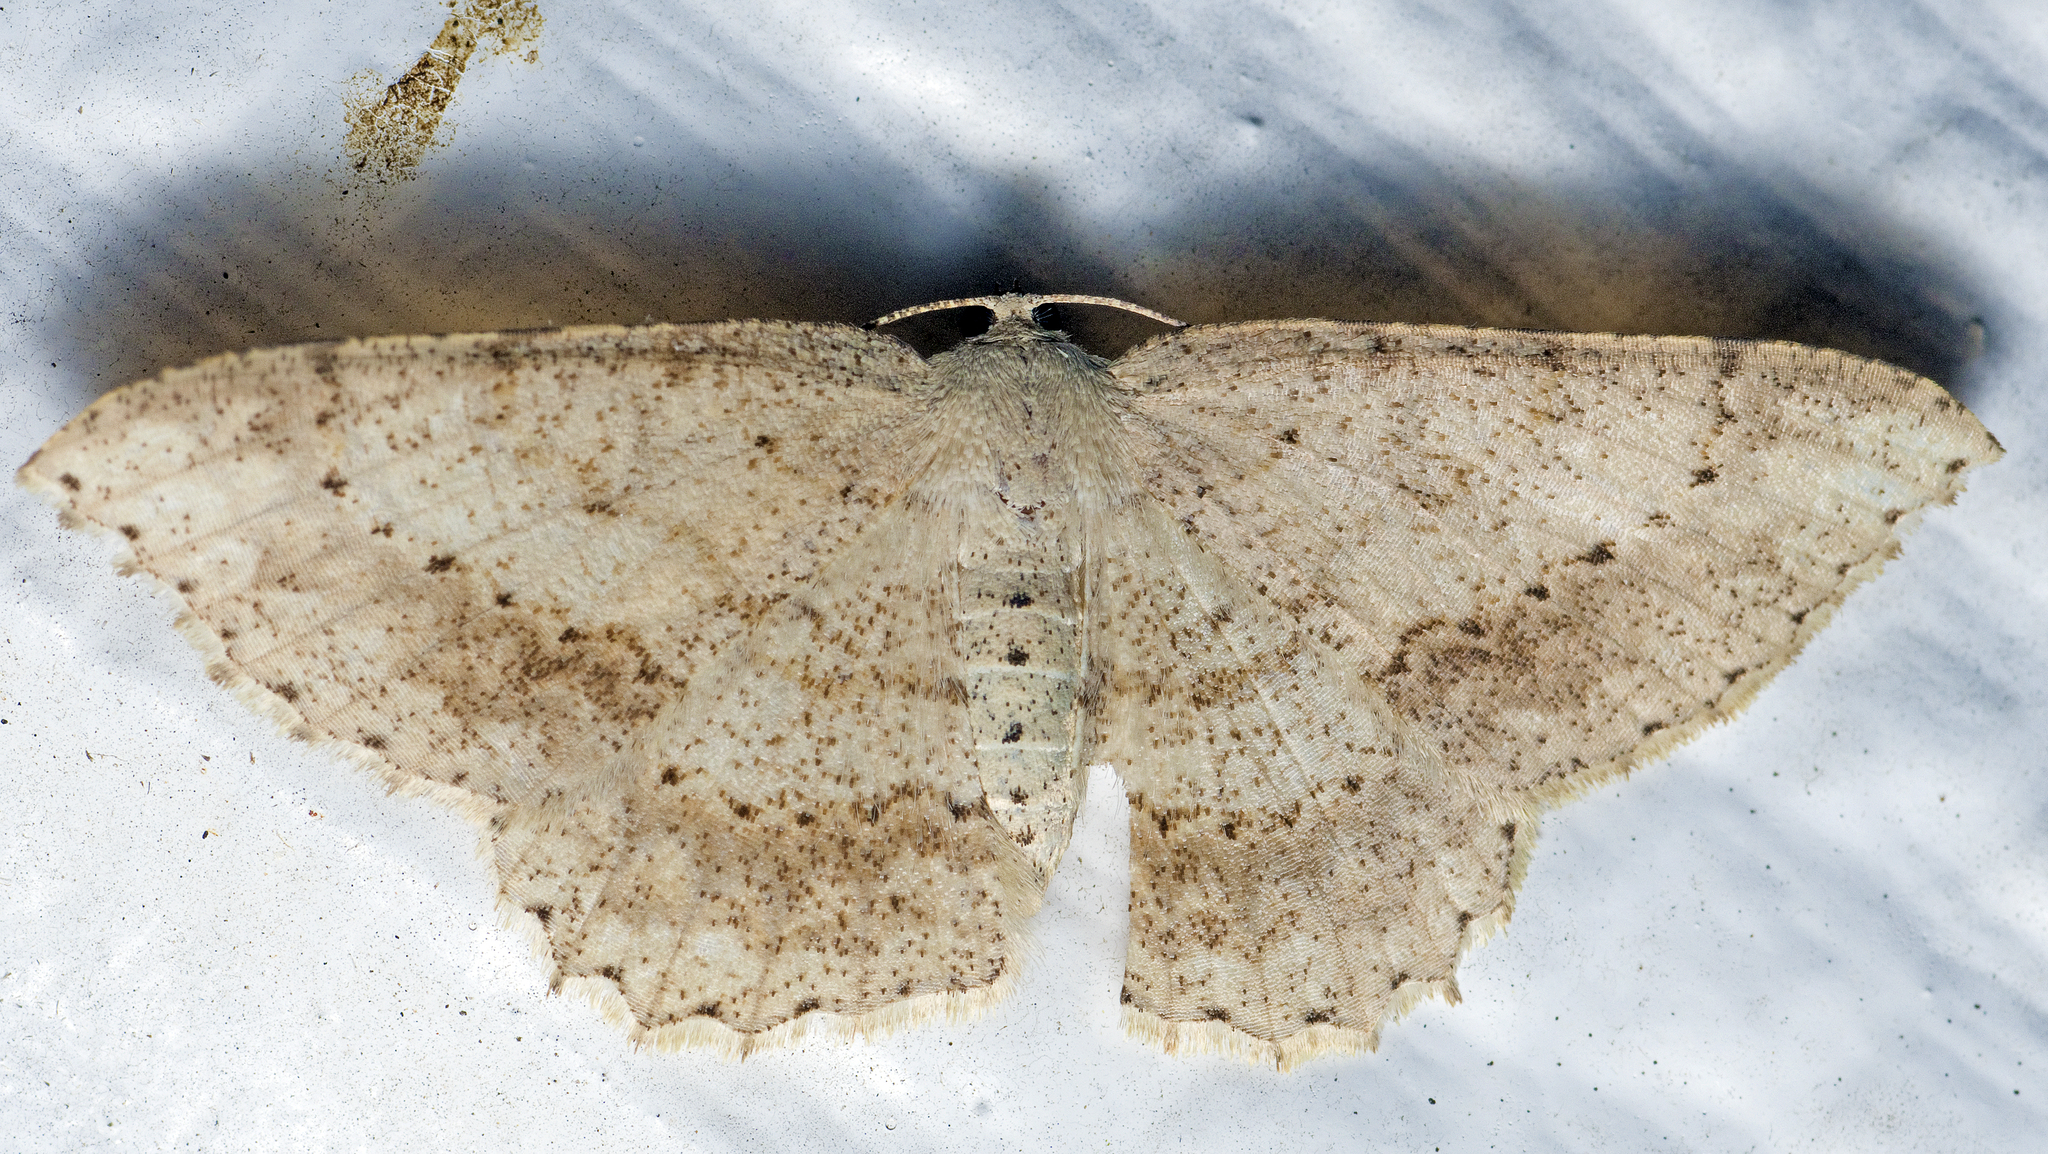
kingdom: Animalia
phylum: Arthropoda
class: Insecta
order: Lepidoptera
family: Geometridae
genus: Luxiaria
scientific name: Luxiaria ochrophara
